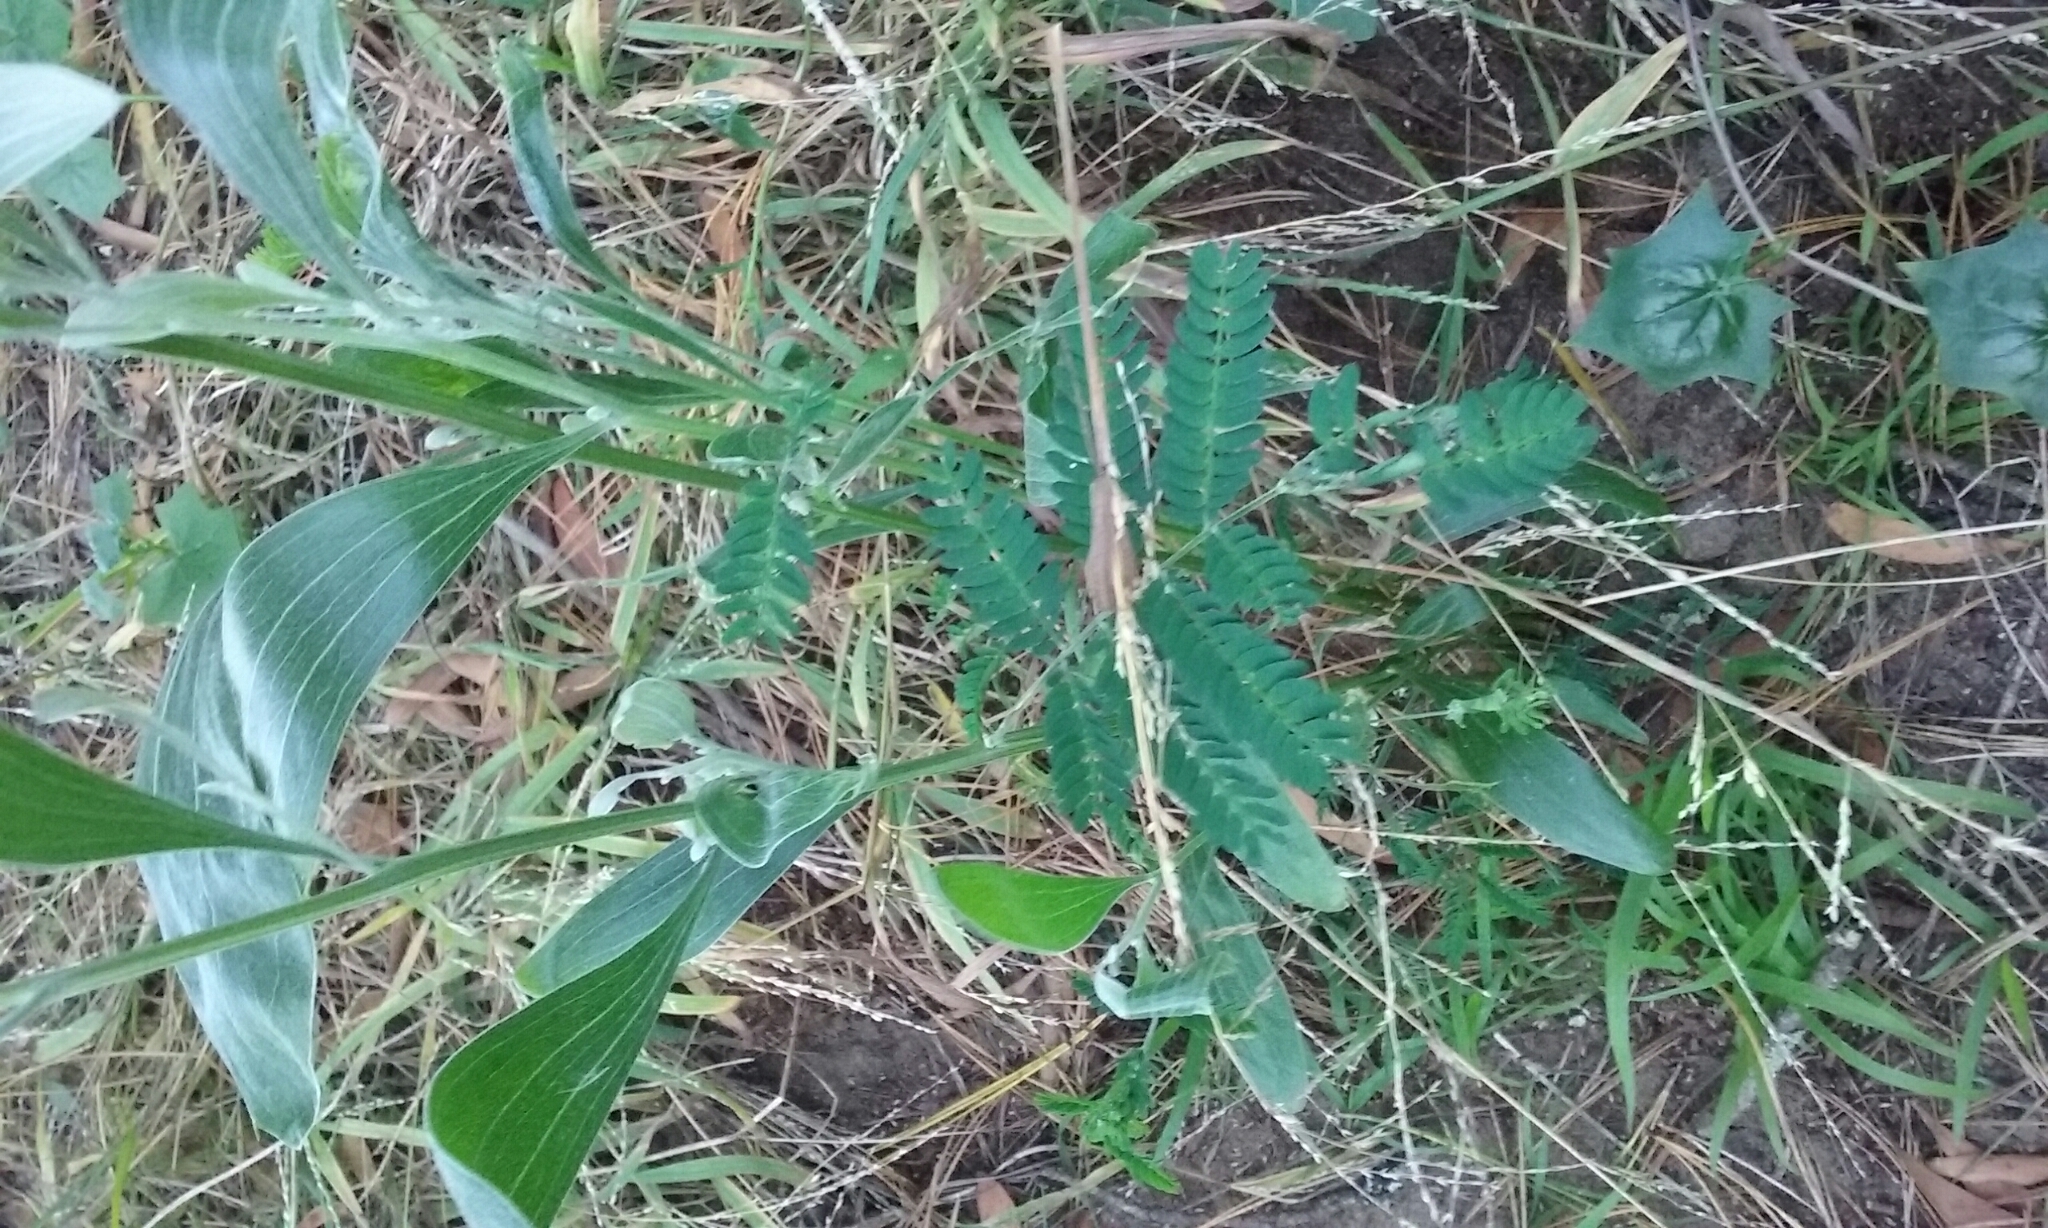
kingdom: Plantae
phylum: Tracheophyta
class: Magnoliopsida
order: Fabales
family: Fabaceae
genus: Acacia
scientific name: Acacia melanoxylon
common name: Blackwood
